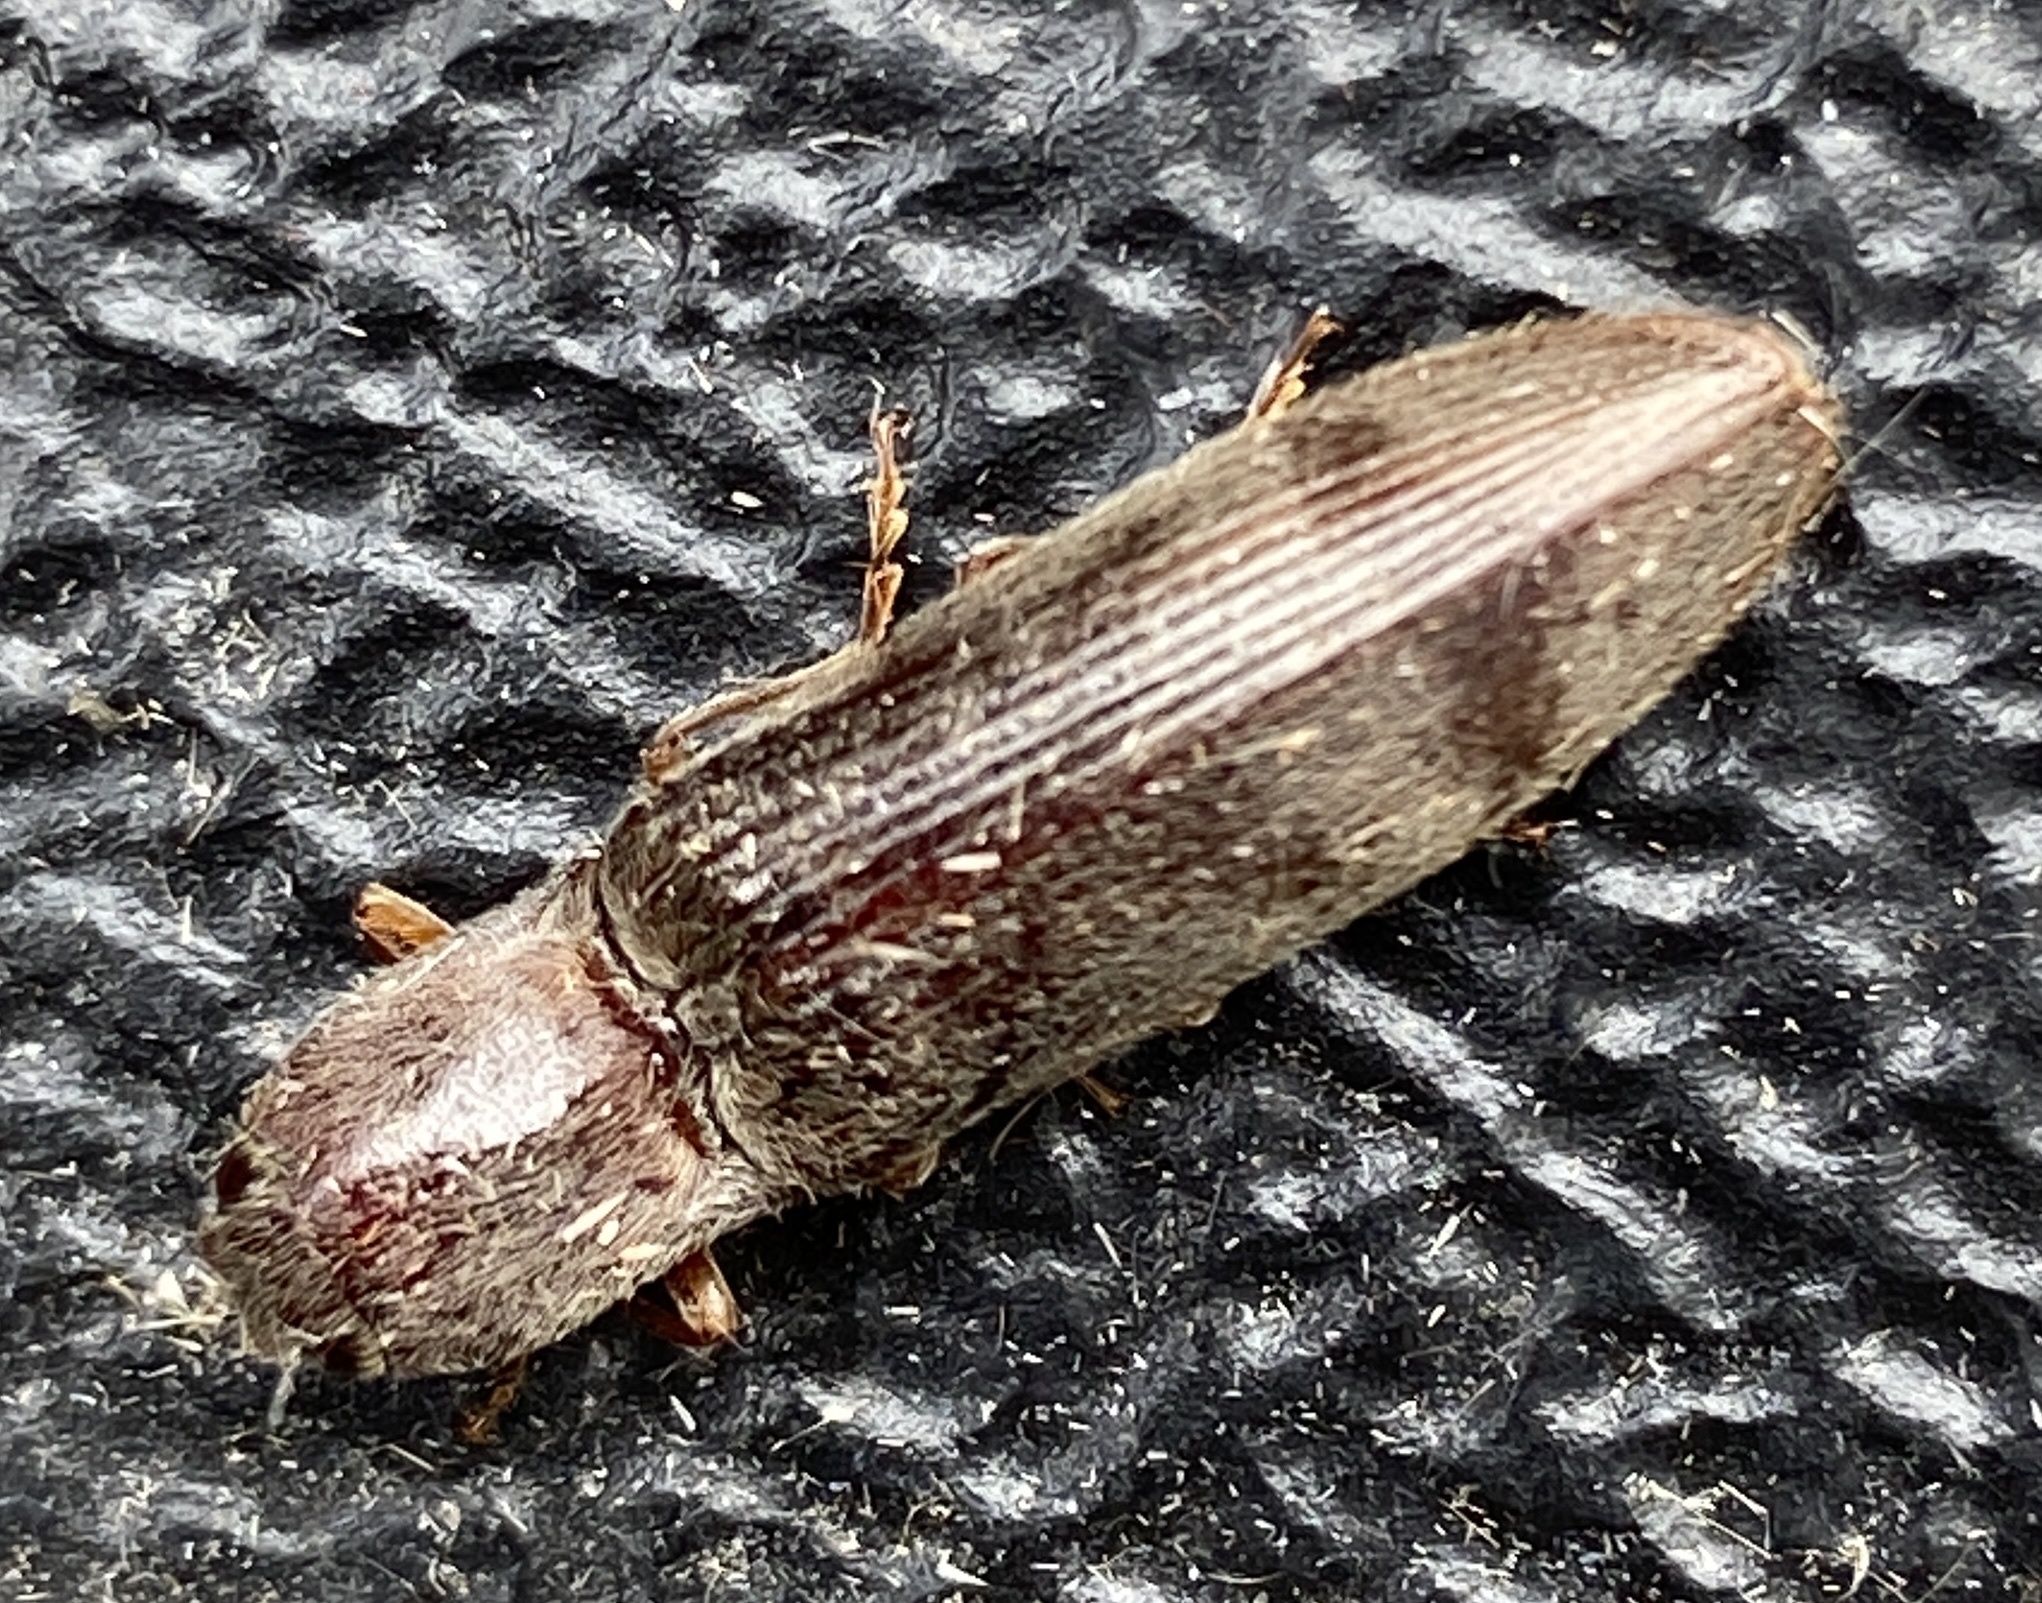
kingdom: Animalia
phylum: Arthropoda
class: Insecta
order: Coleoptera
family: Elateridae
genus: Stenagostus
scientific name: Stenagostus rhombeus
